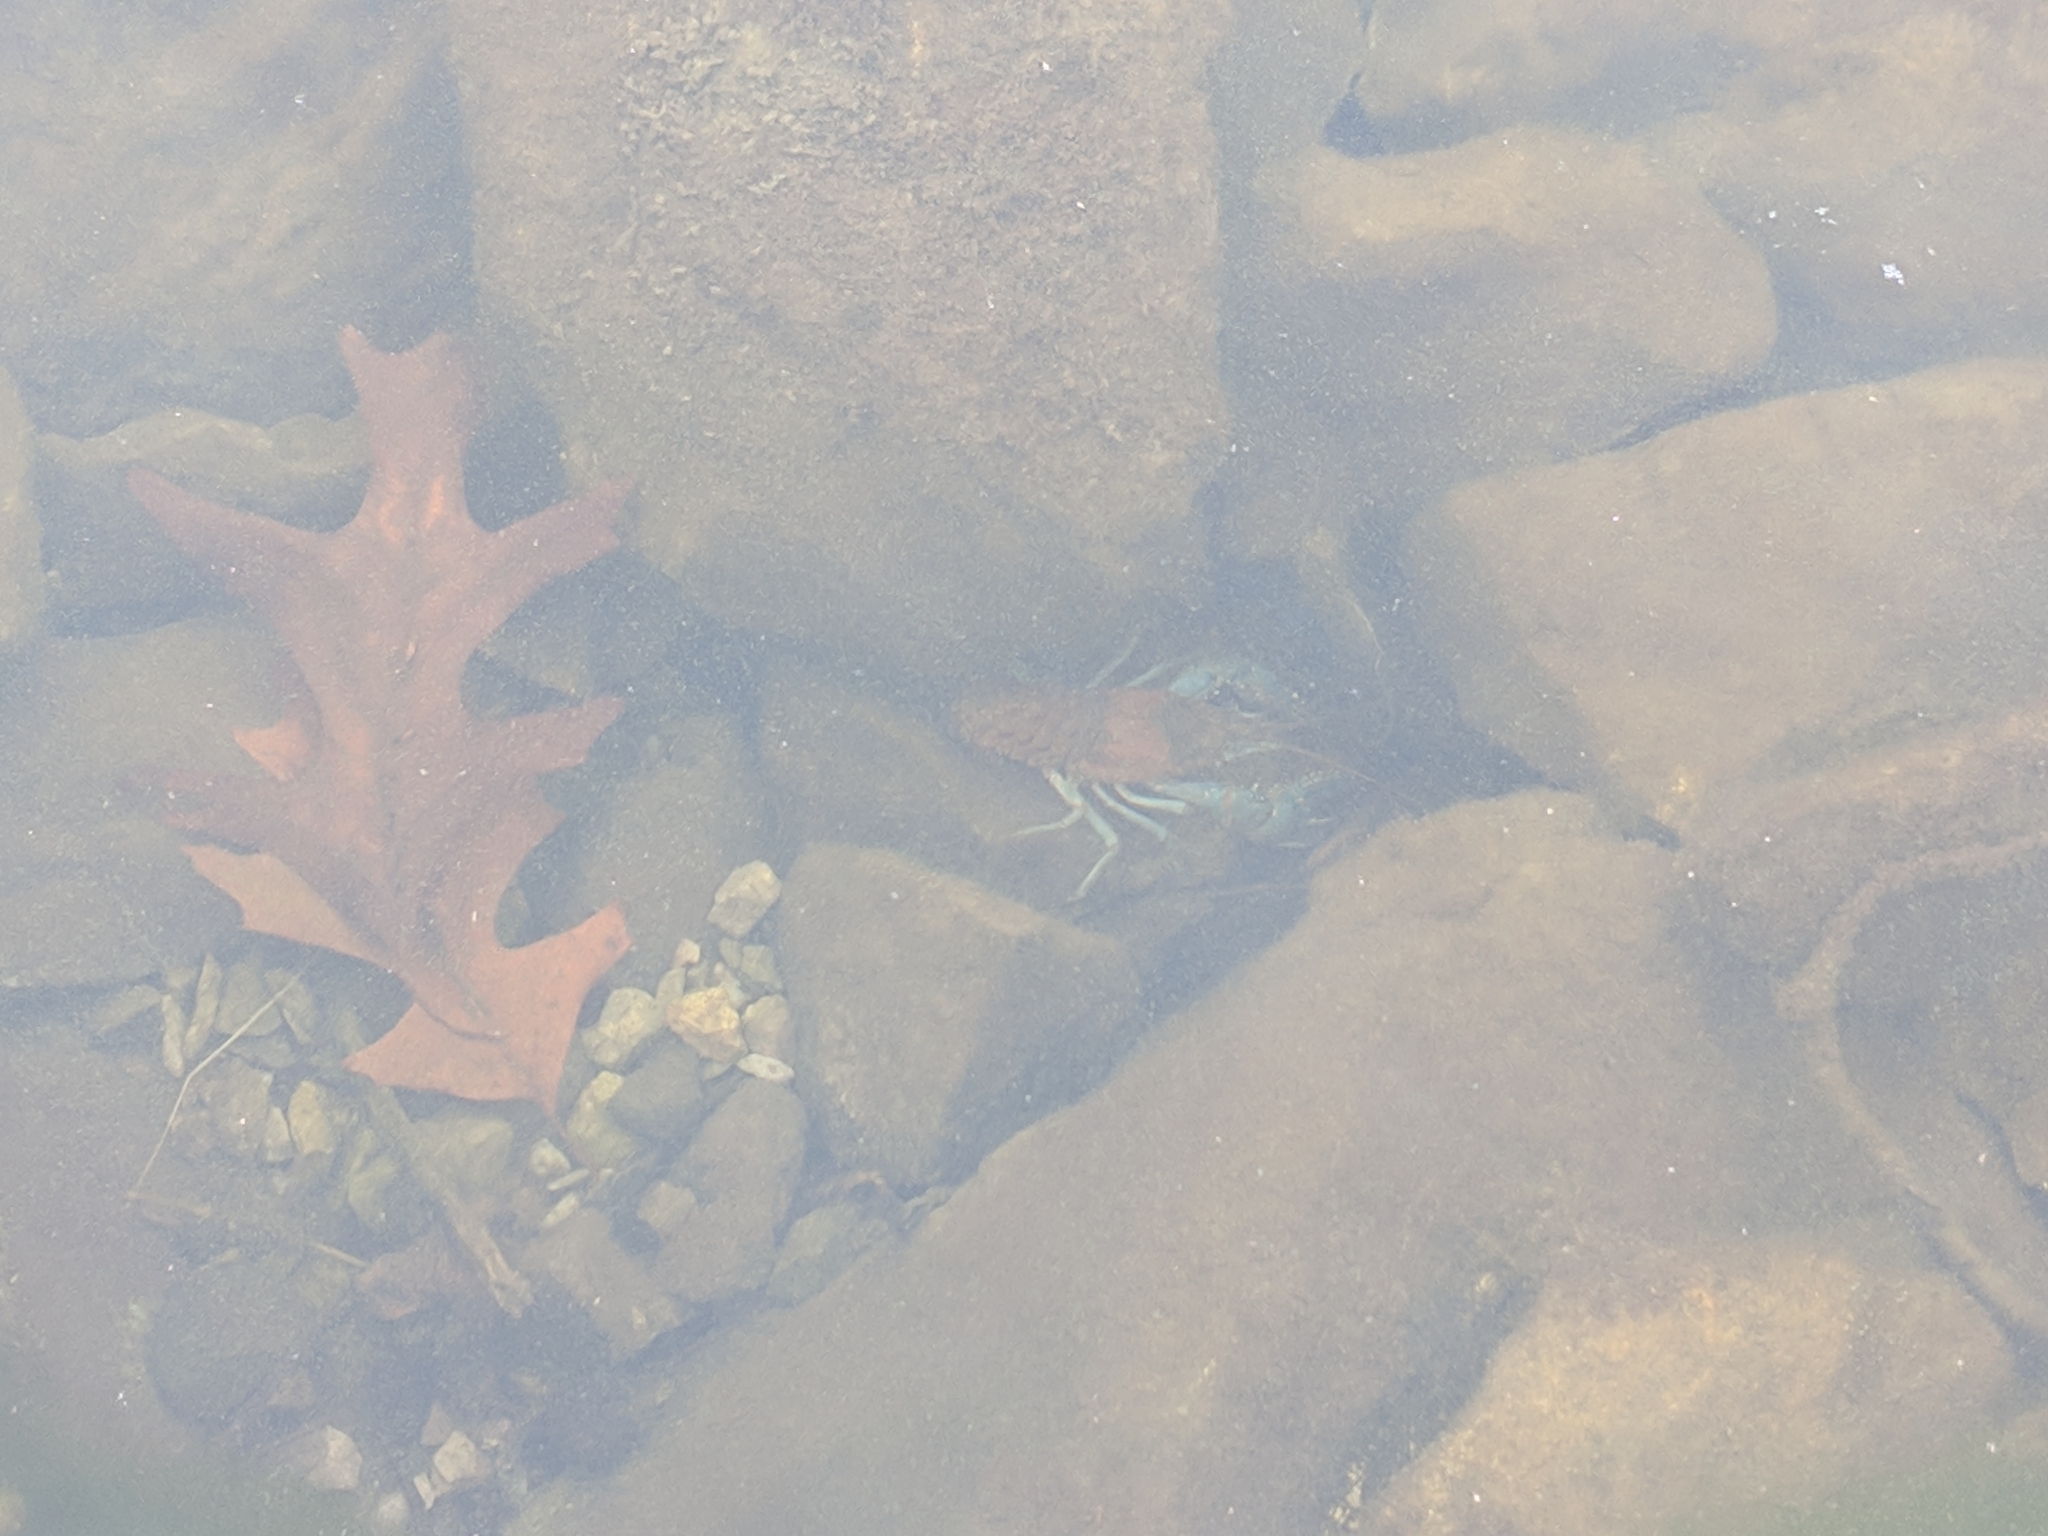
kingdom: Animalia
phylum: Arthropoda
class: Malacostraca
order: Decapoda
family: Cambaridae
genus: Faxonius
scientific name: Faxonius virilis
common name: Virile crayfish
